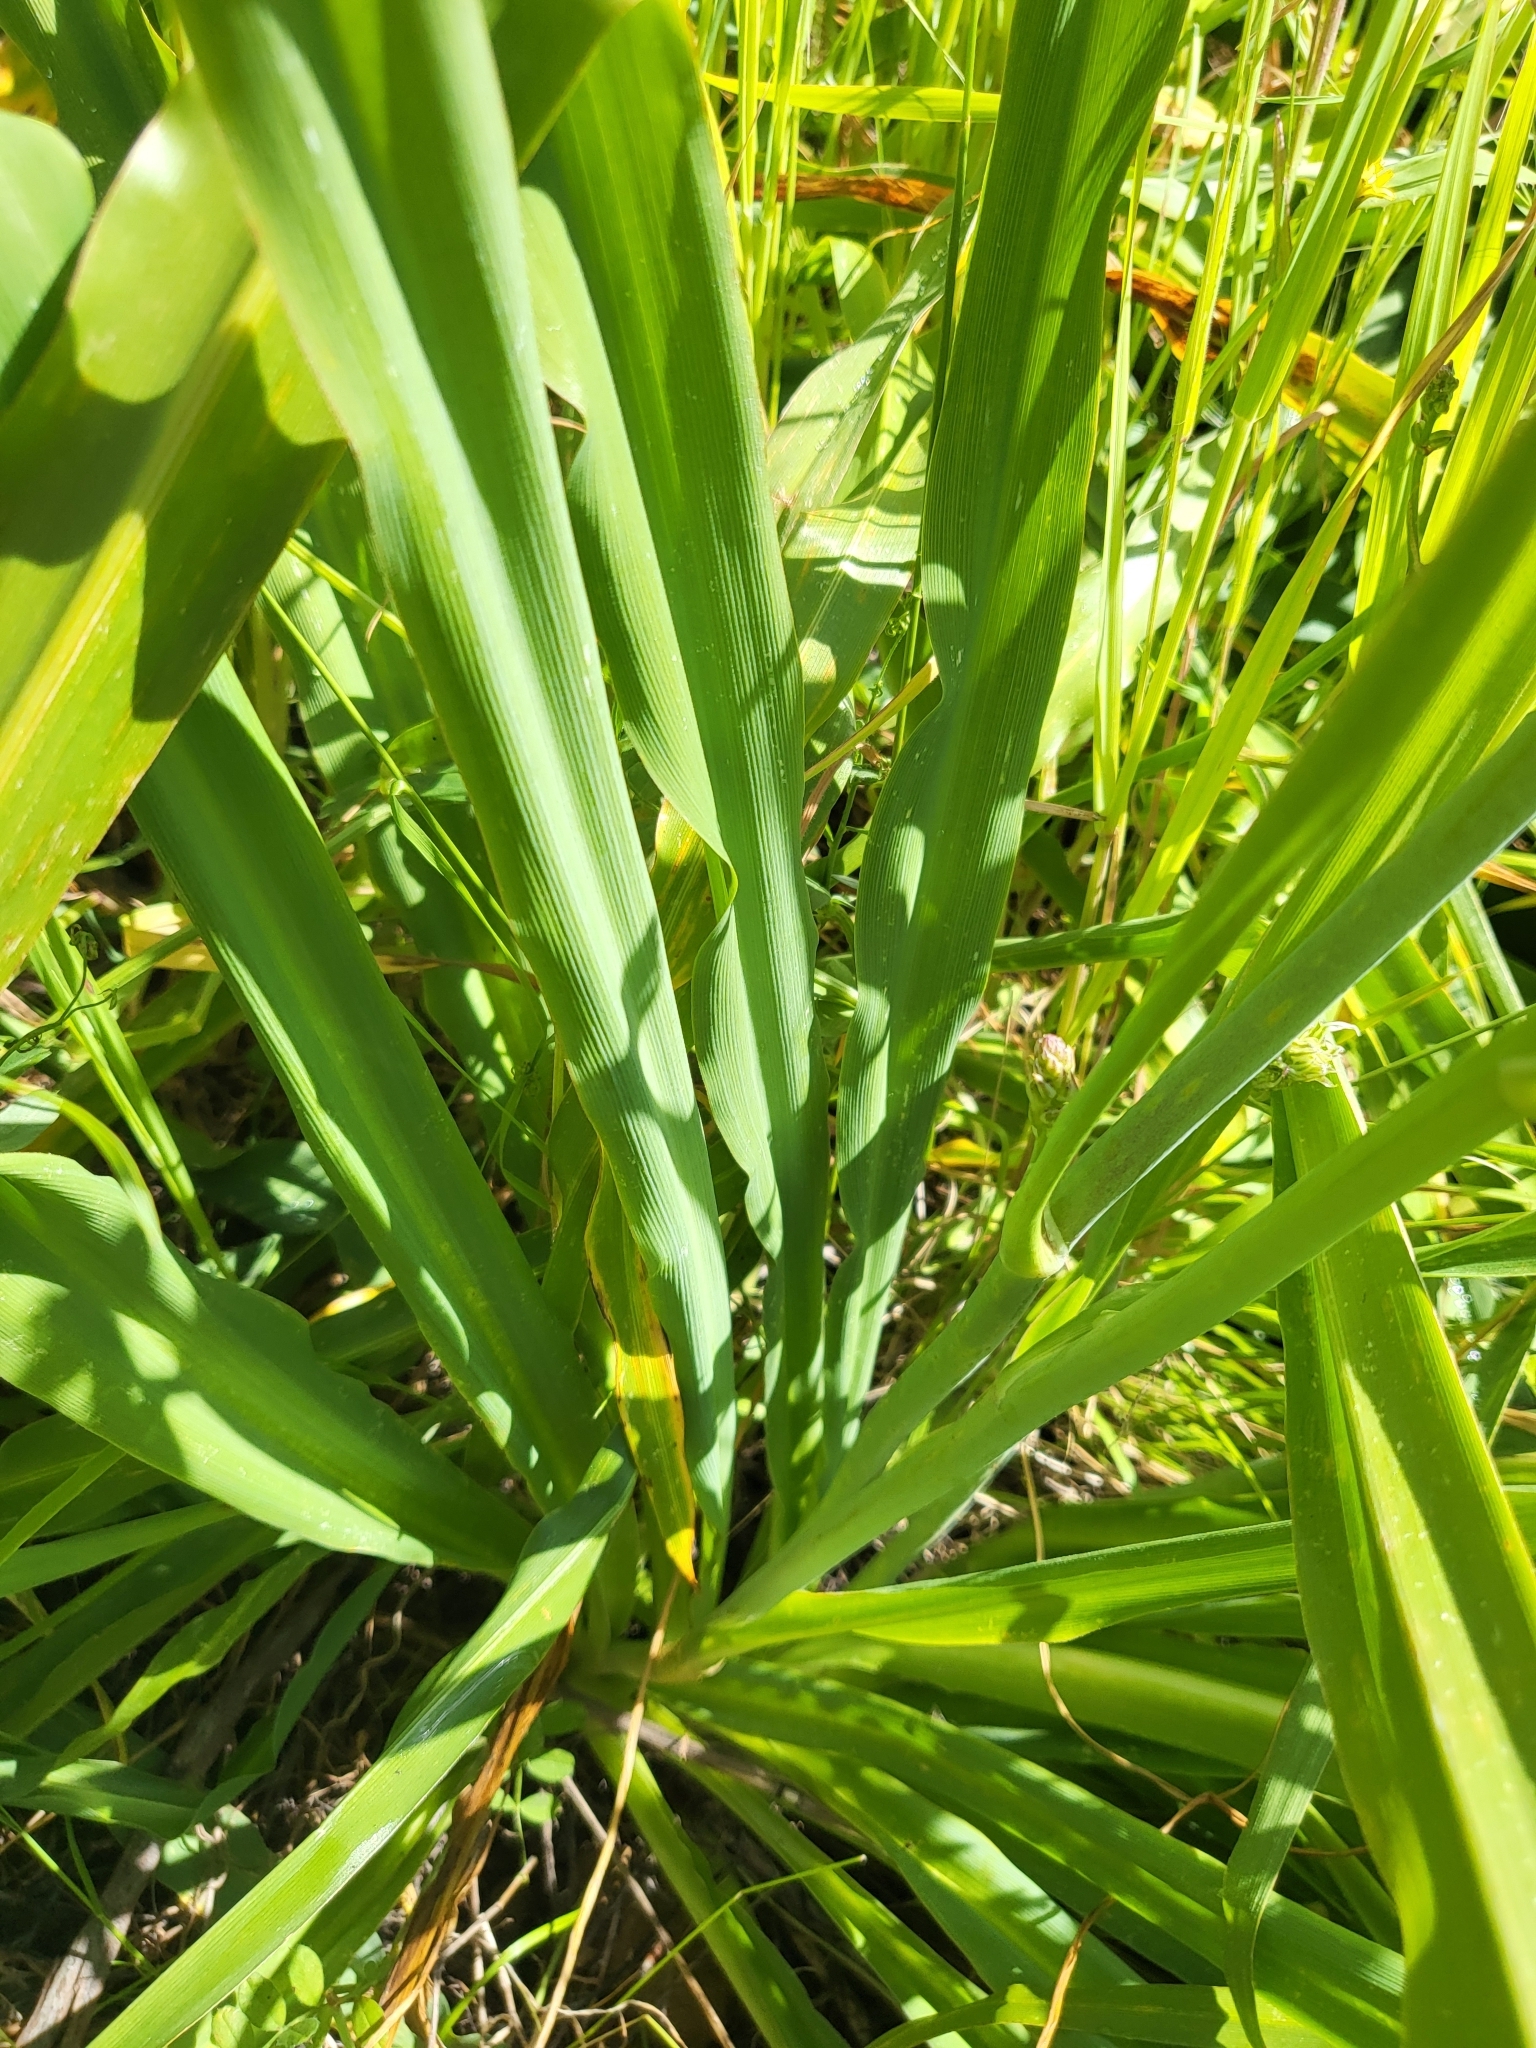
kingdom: Plantae
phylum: Tracheophyta
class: Liliopsida
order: Asparagales
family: Asparagaceae
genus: Chlorogalum
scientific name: Chlorogalum pomeridianum
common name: Amole
